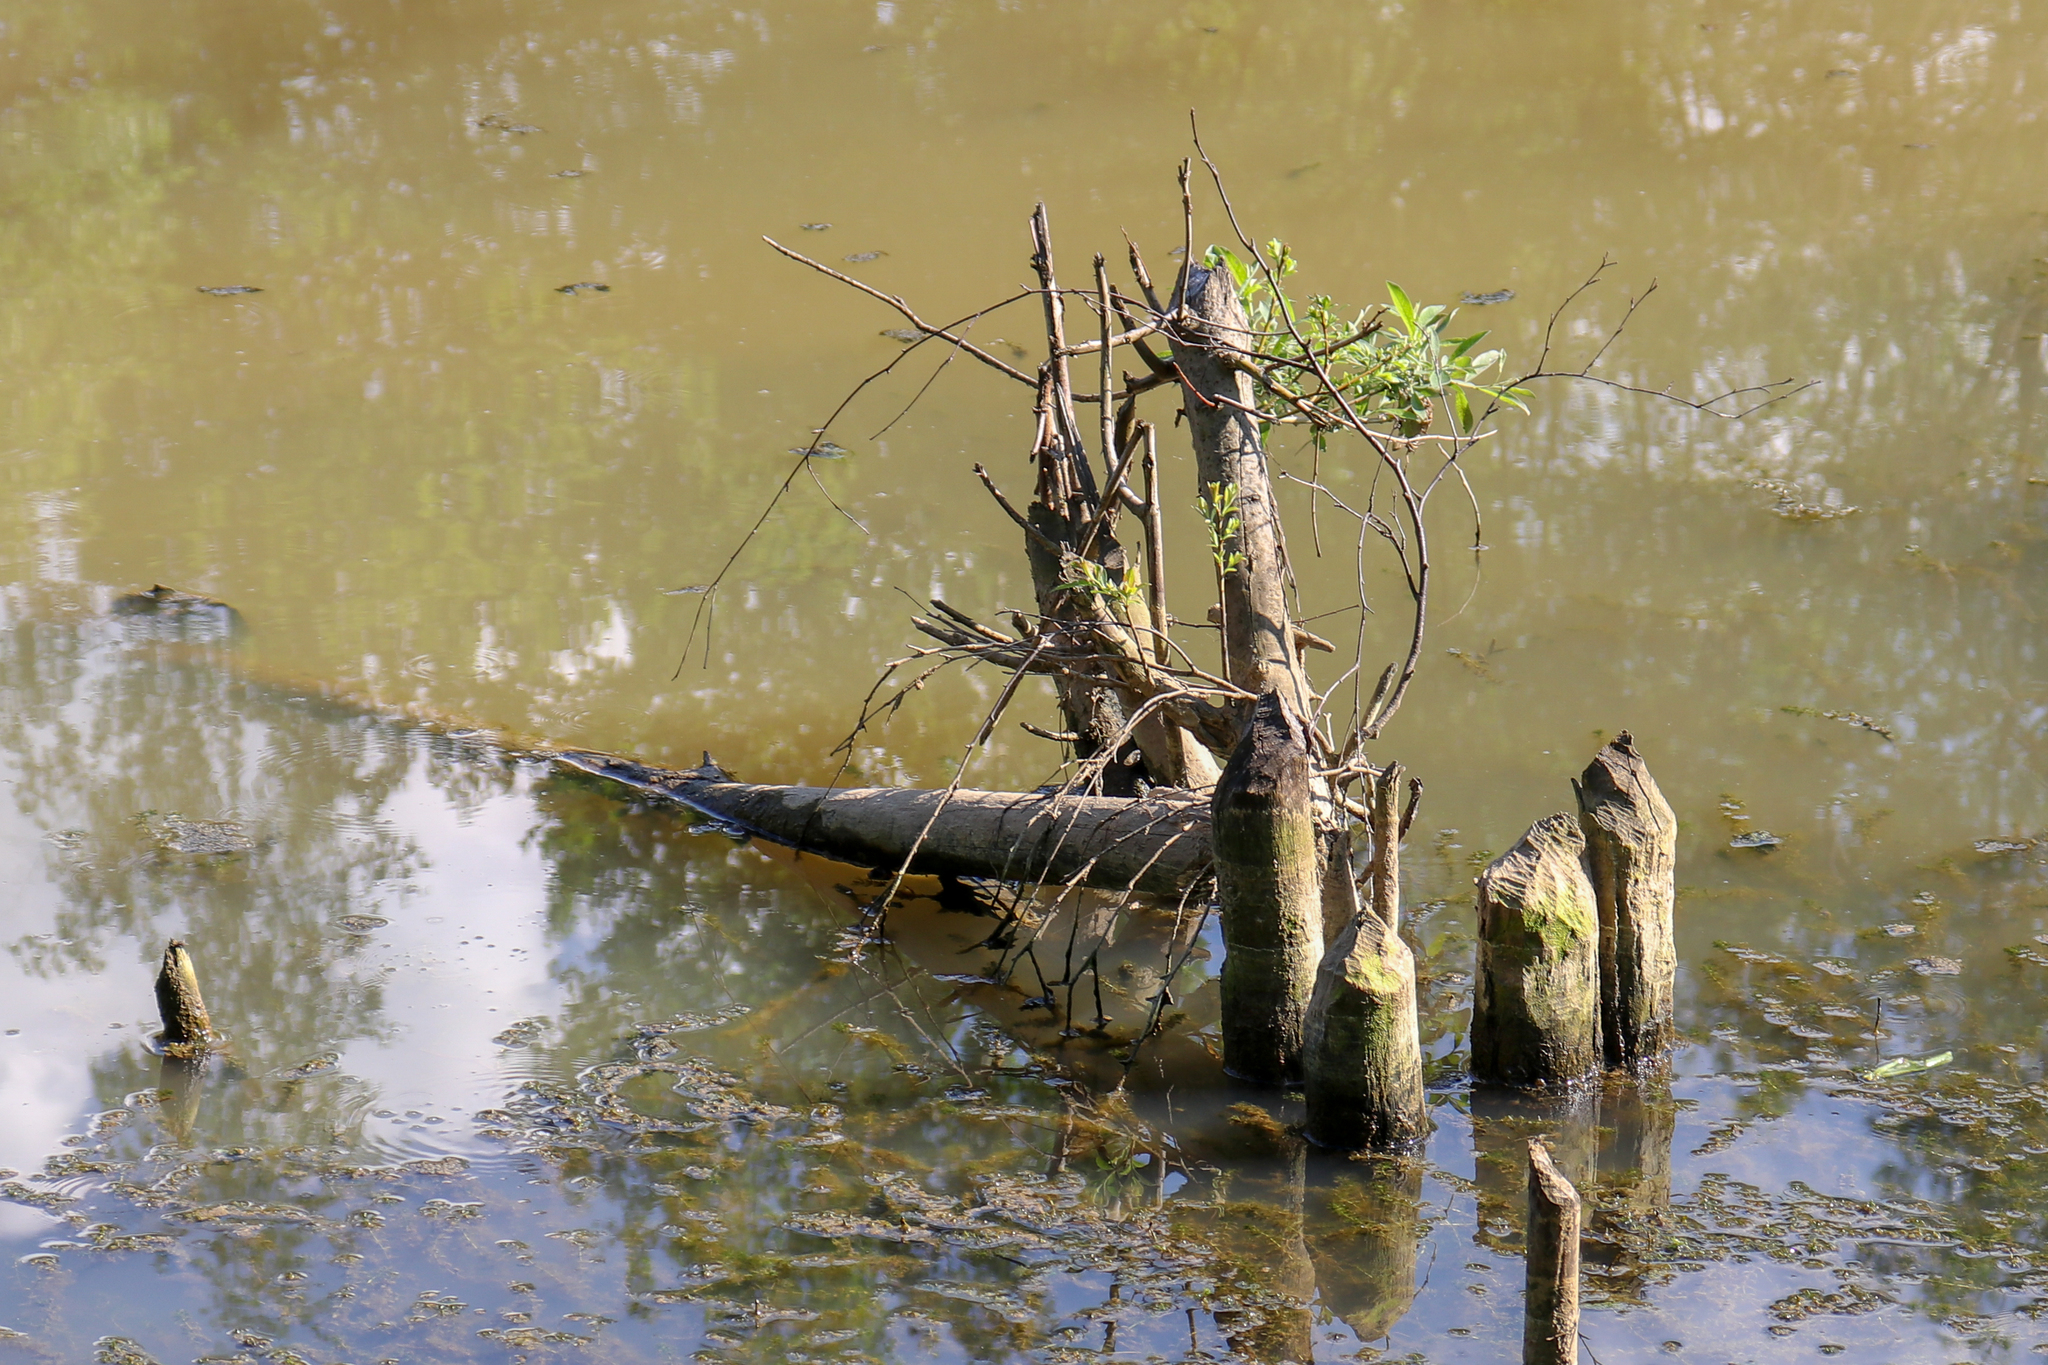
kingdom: Animalia
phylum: Chordata
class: Mammalia
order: Rodentia
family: Castoridae
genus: Castor
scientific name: Castor fiber
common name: Eurasian beaver
